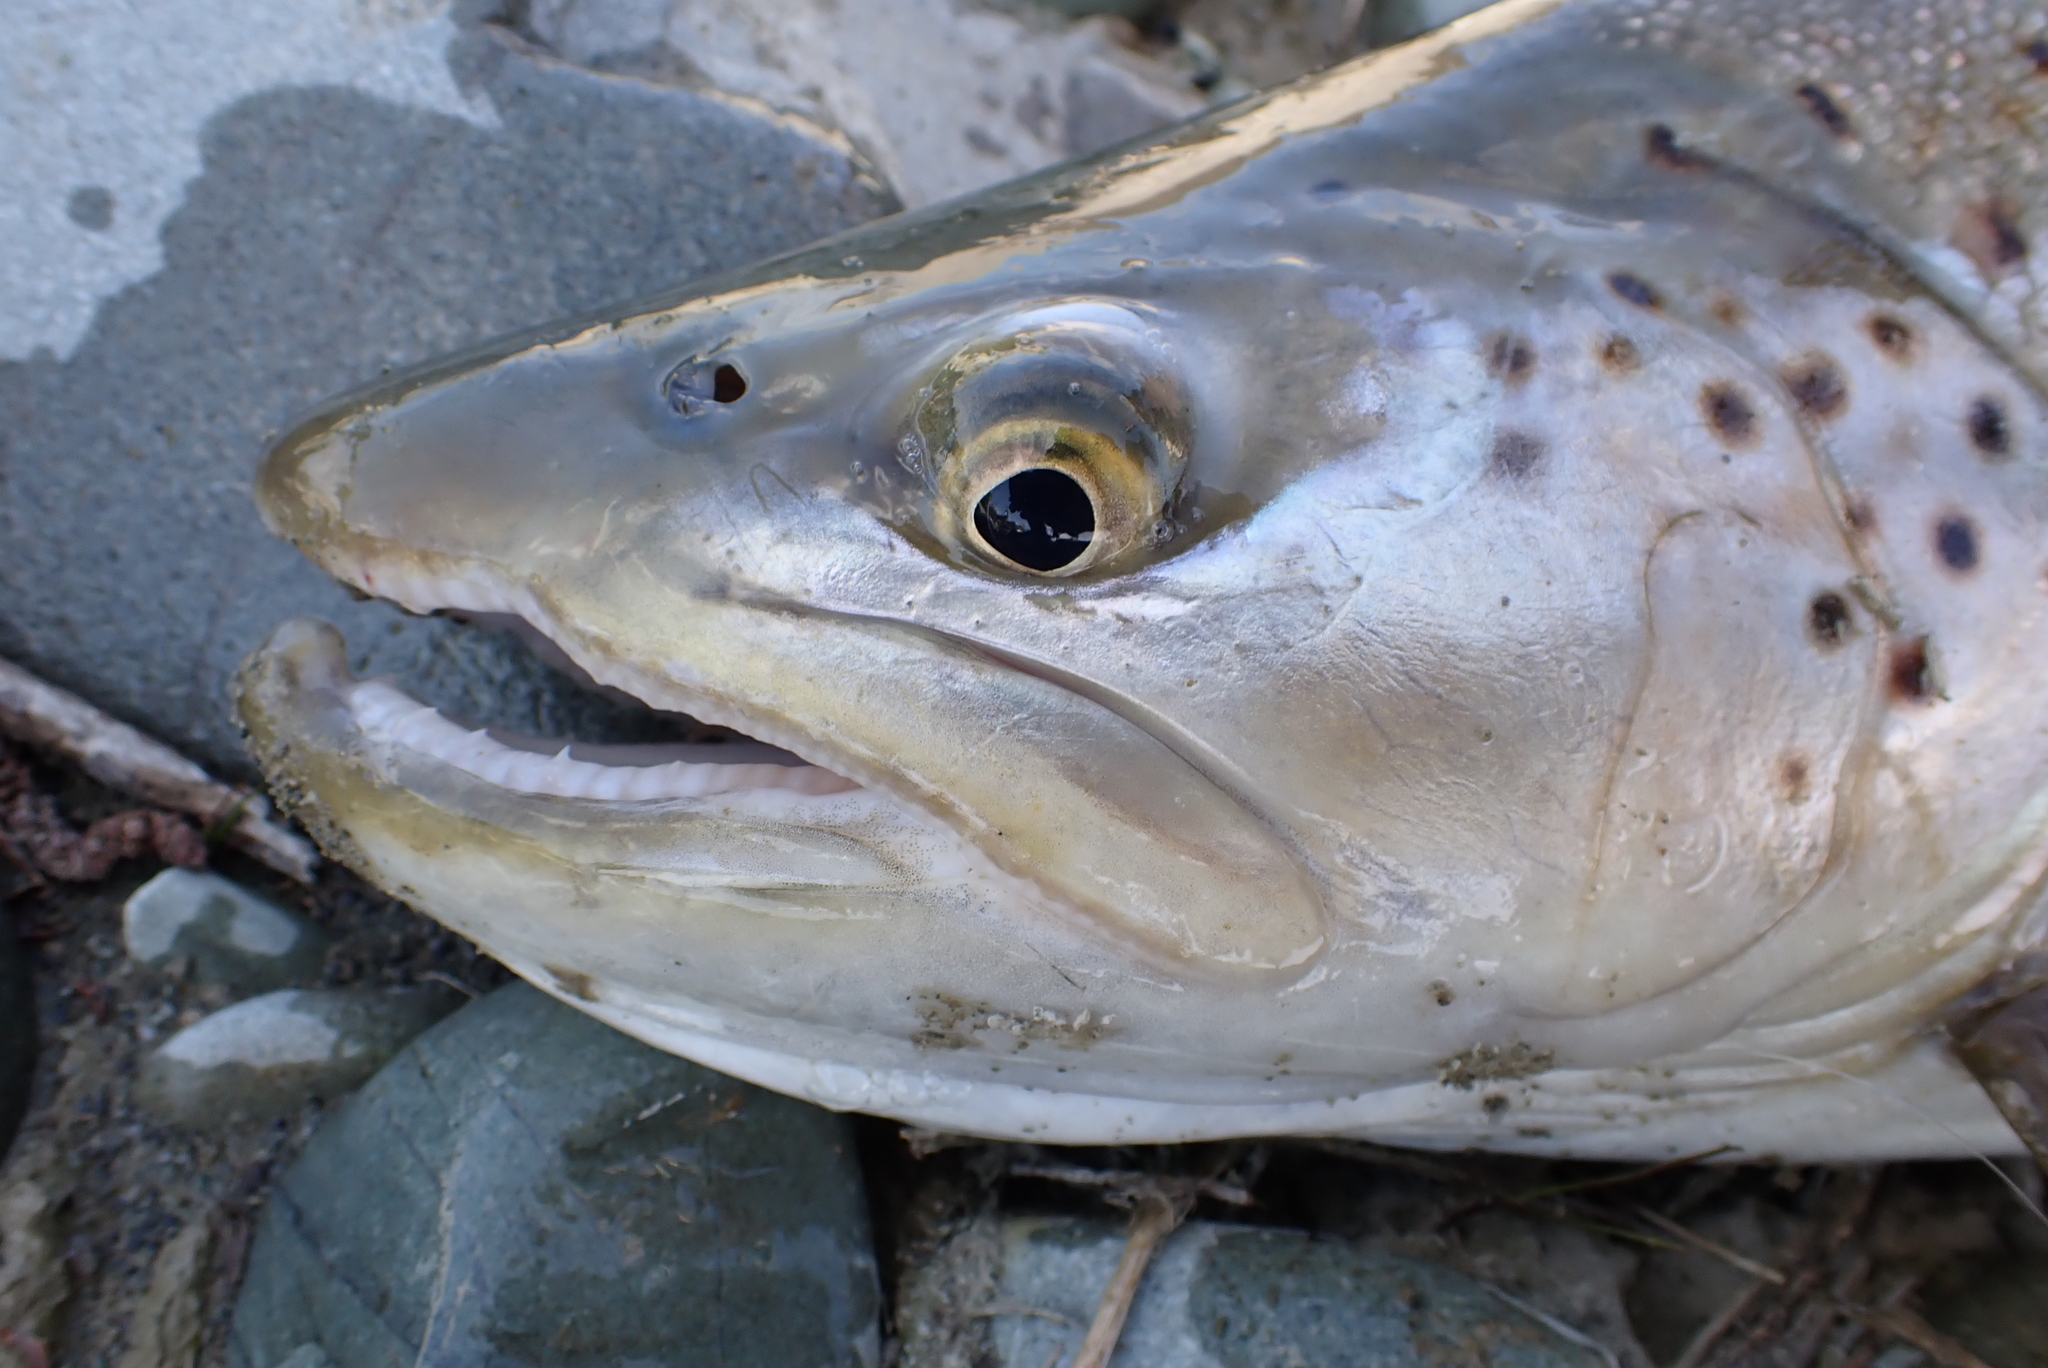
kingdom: Animalia
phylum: Chordata
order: Salmoniformes
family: Salmonidae
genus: Salmo
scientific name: Salmo trutta
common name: Brown trout
